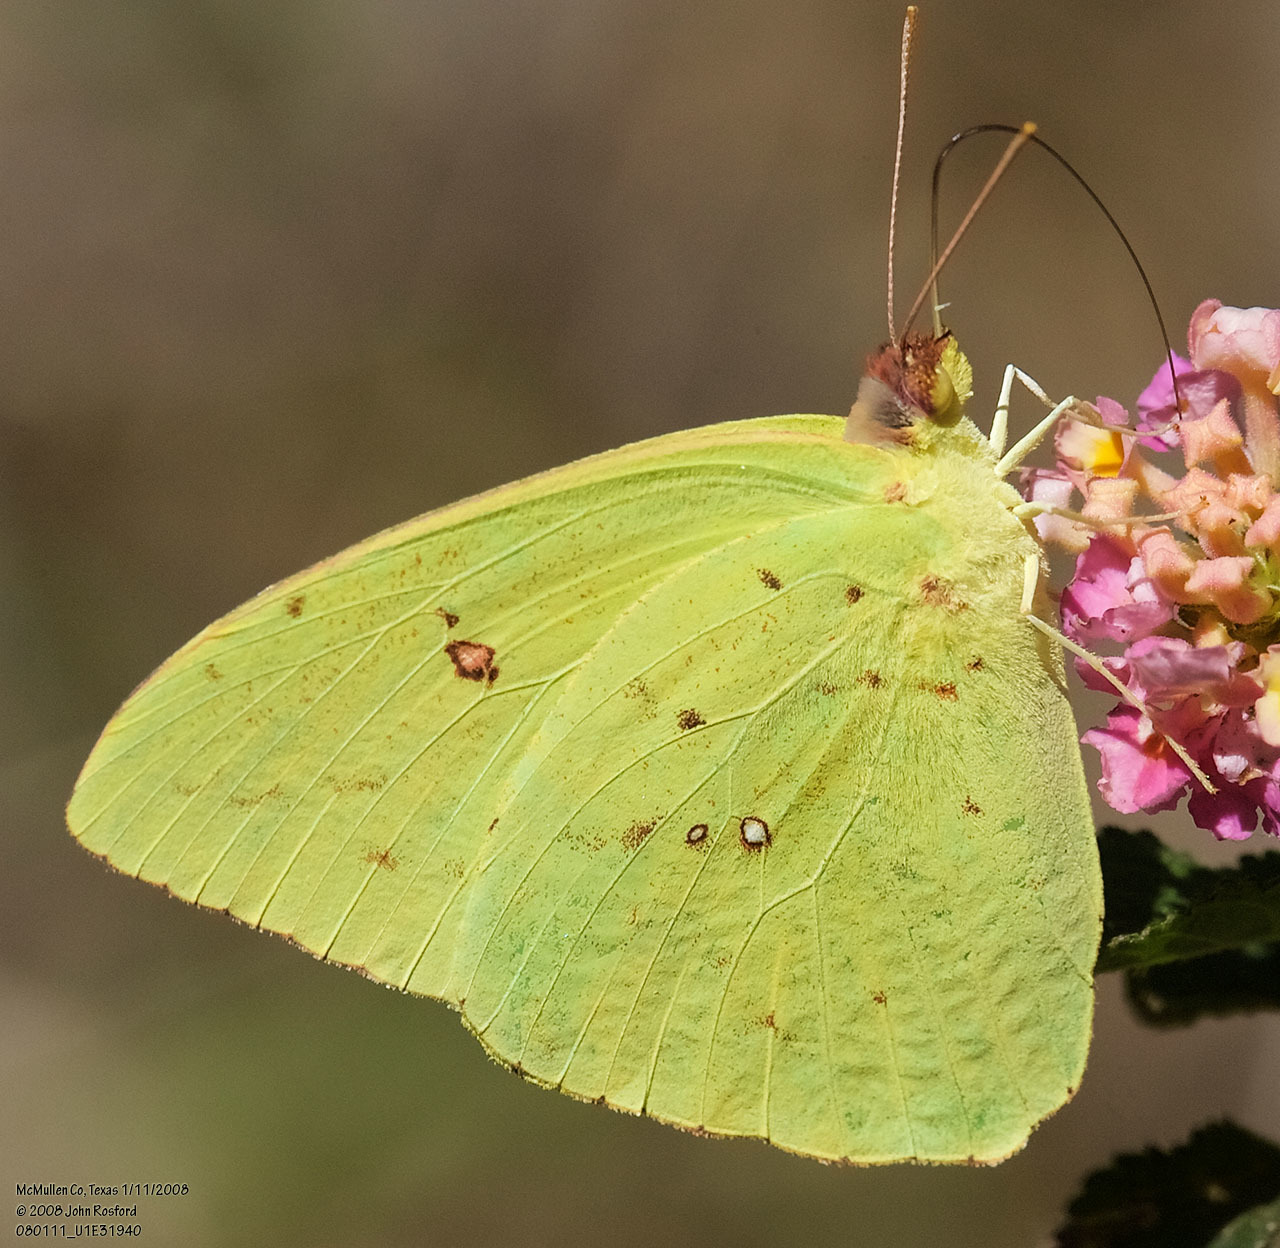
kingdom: Animalia
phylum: Arthropoda
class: Insecta
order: Lepidoptera
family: Pieridae
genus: Phoebis
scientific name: Phoebis sennae
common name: Cloudless sulphur
